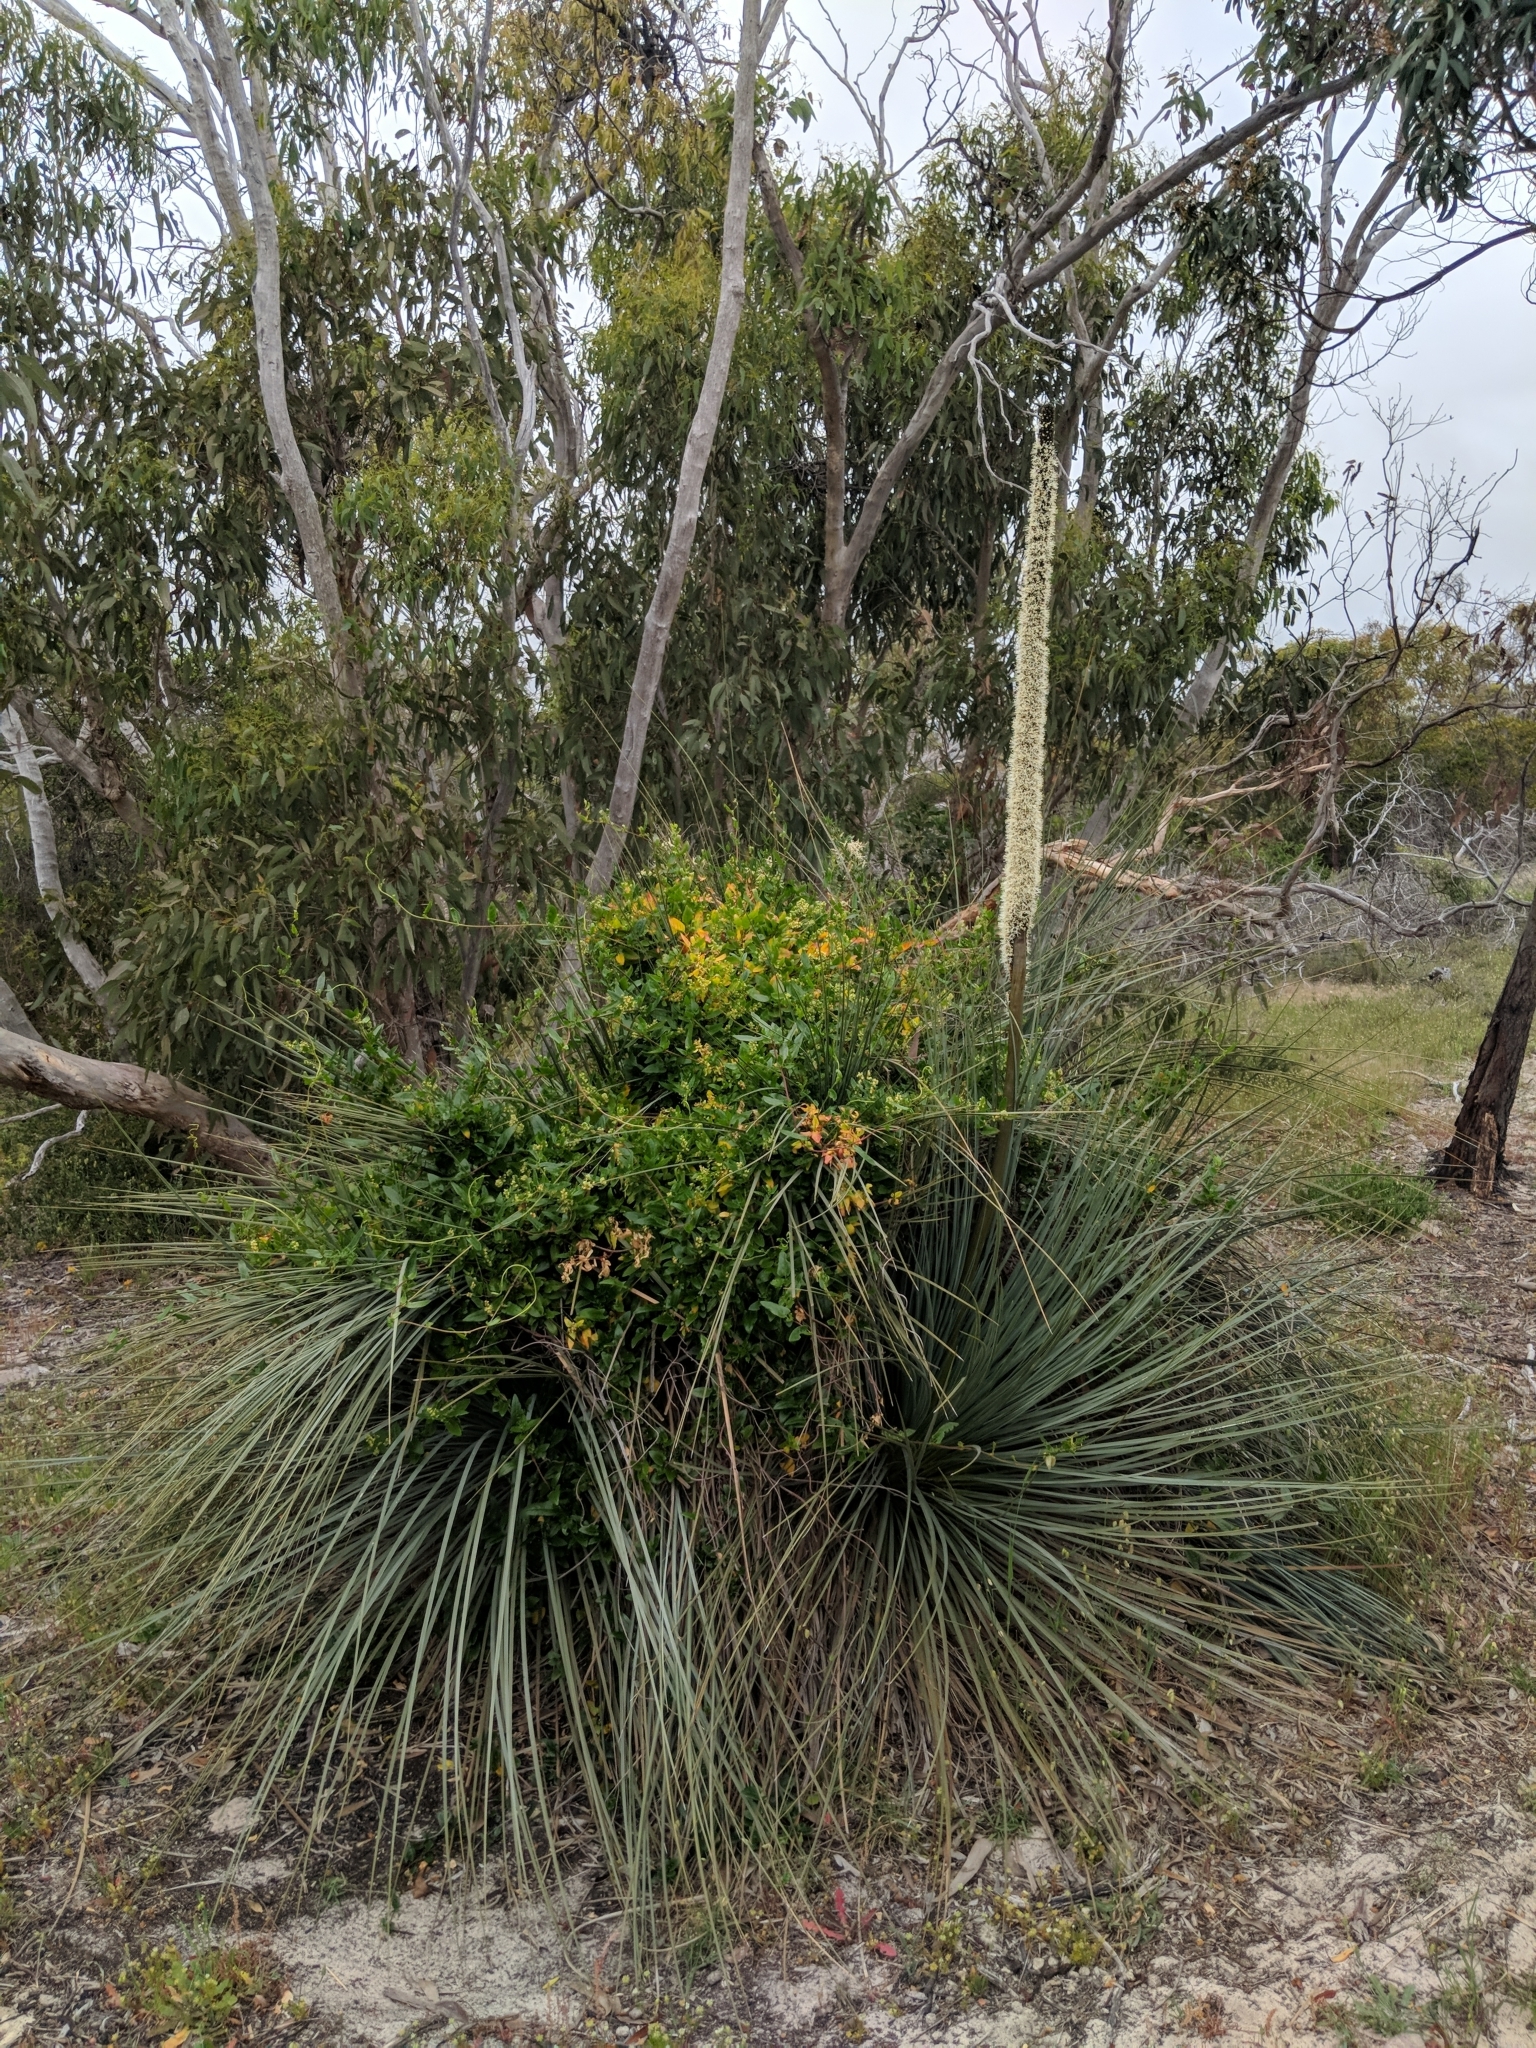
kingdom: Plantae
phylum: Tracheophyta
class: Liliopsida
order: Asparagales
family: Asphodelaceae
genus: Xanthorrhoea
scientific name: Xanthorrhoea semiplana
